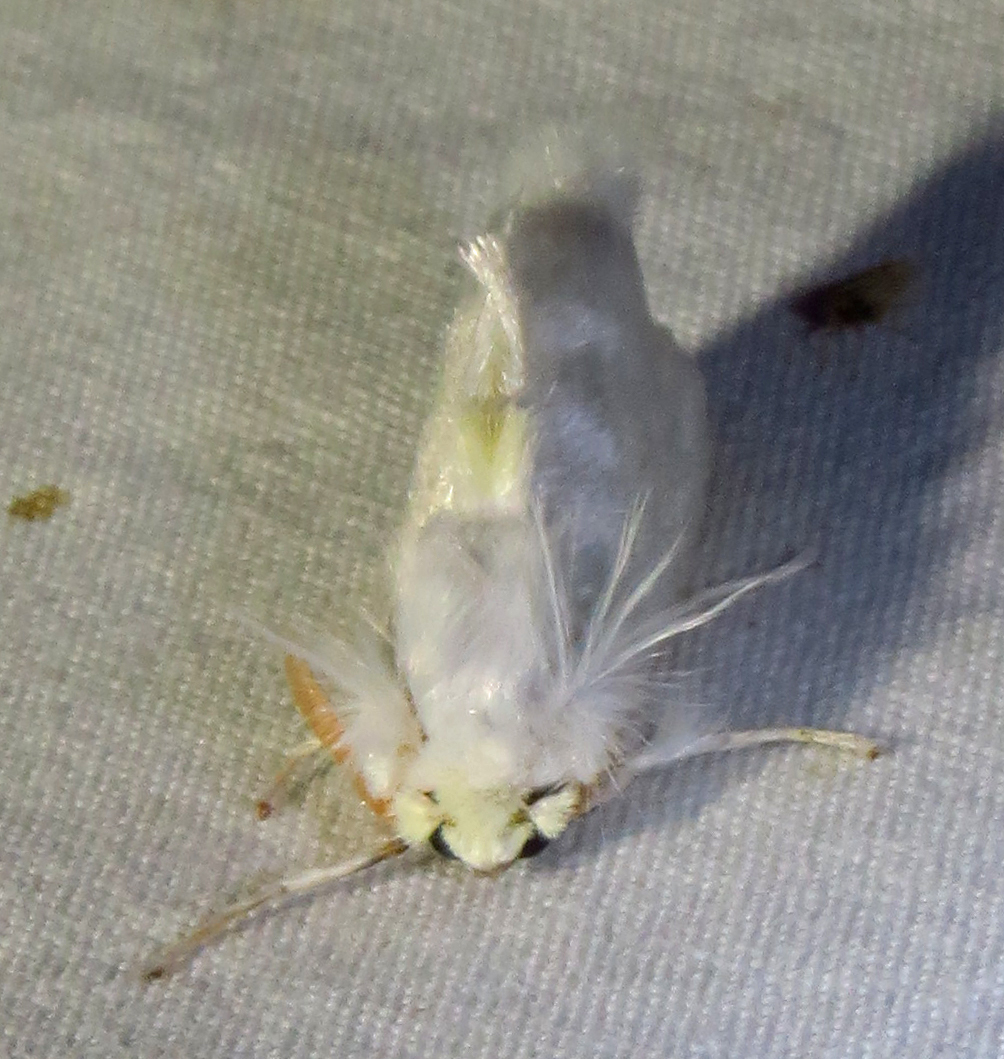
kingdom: Animalia
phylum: Arthropoda
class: Insecta
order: Lepidoptera
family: Megalopygidae
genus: Norape
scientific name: Norape cretata
